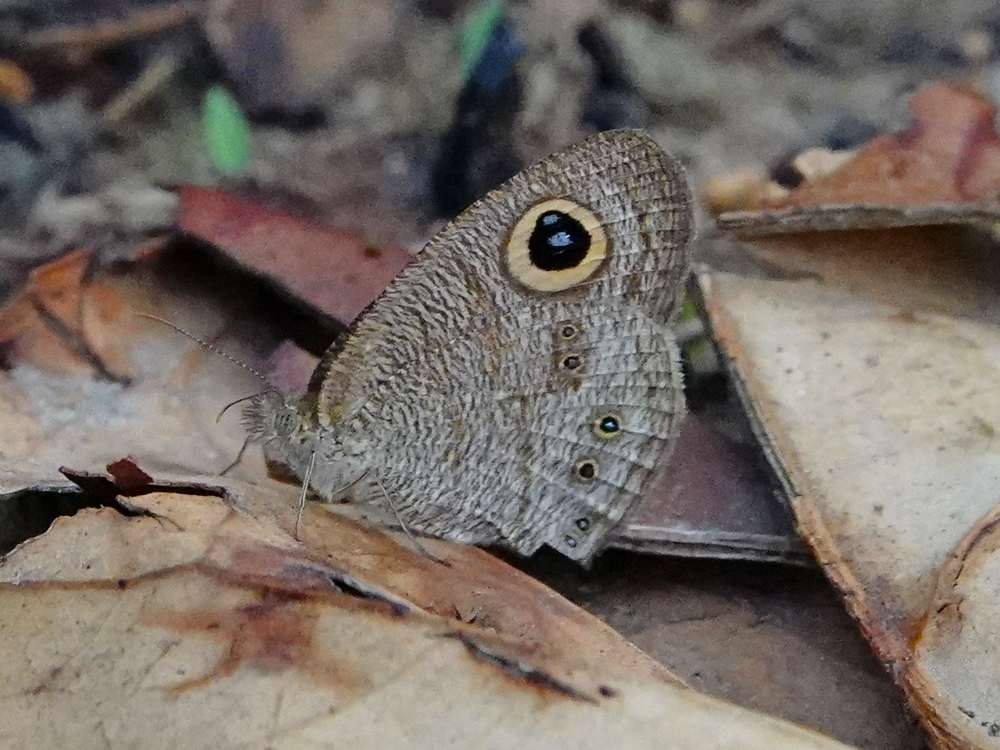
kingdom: Animalia
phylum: Arthropoda
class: Insecta
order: Lepidoptera
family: Nymphalidae
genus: Ypthima
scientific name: Ypthima baldus
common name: Common five-ring
